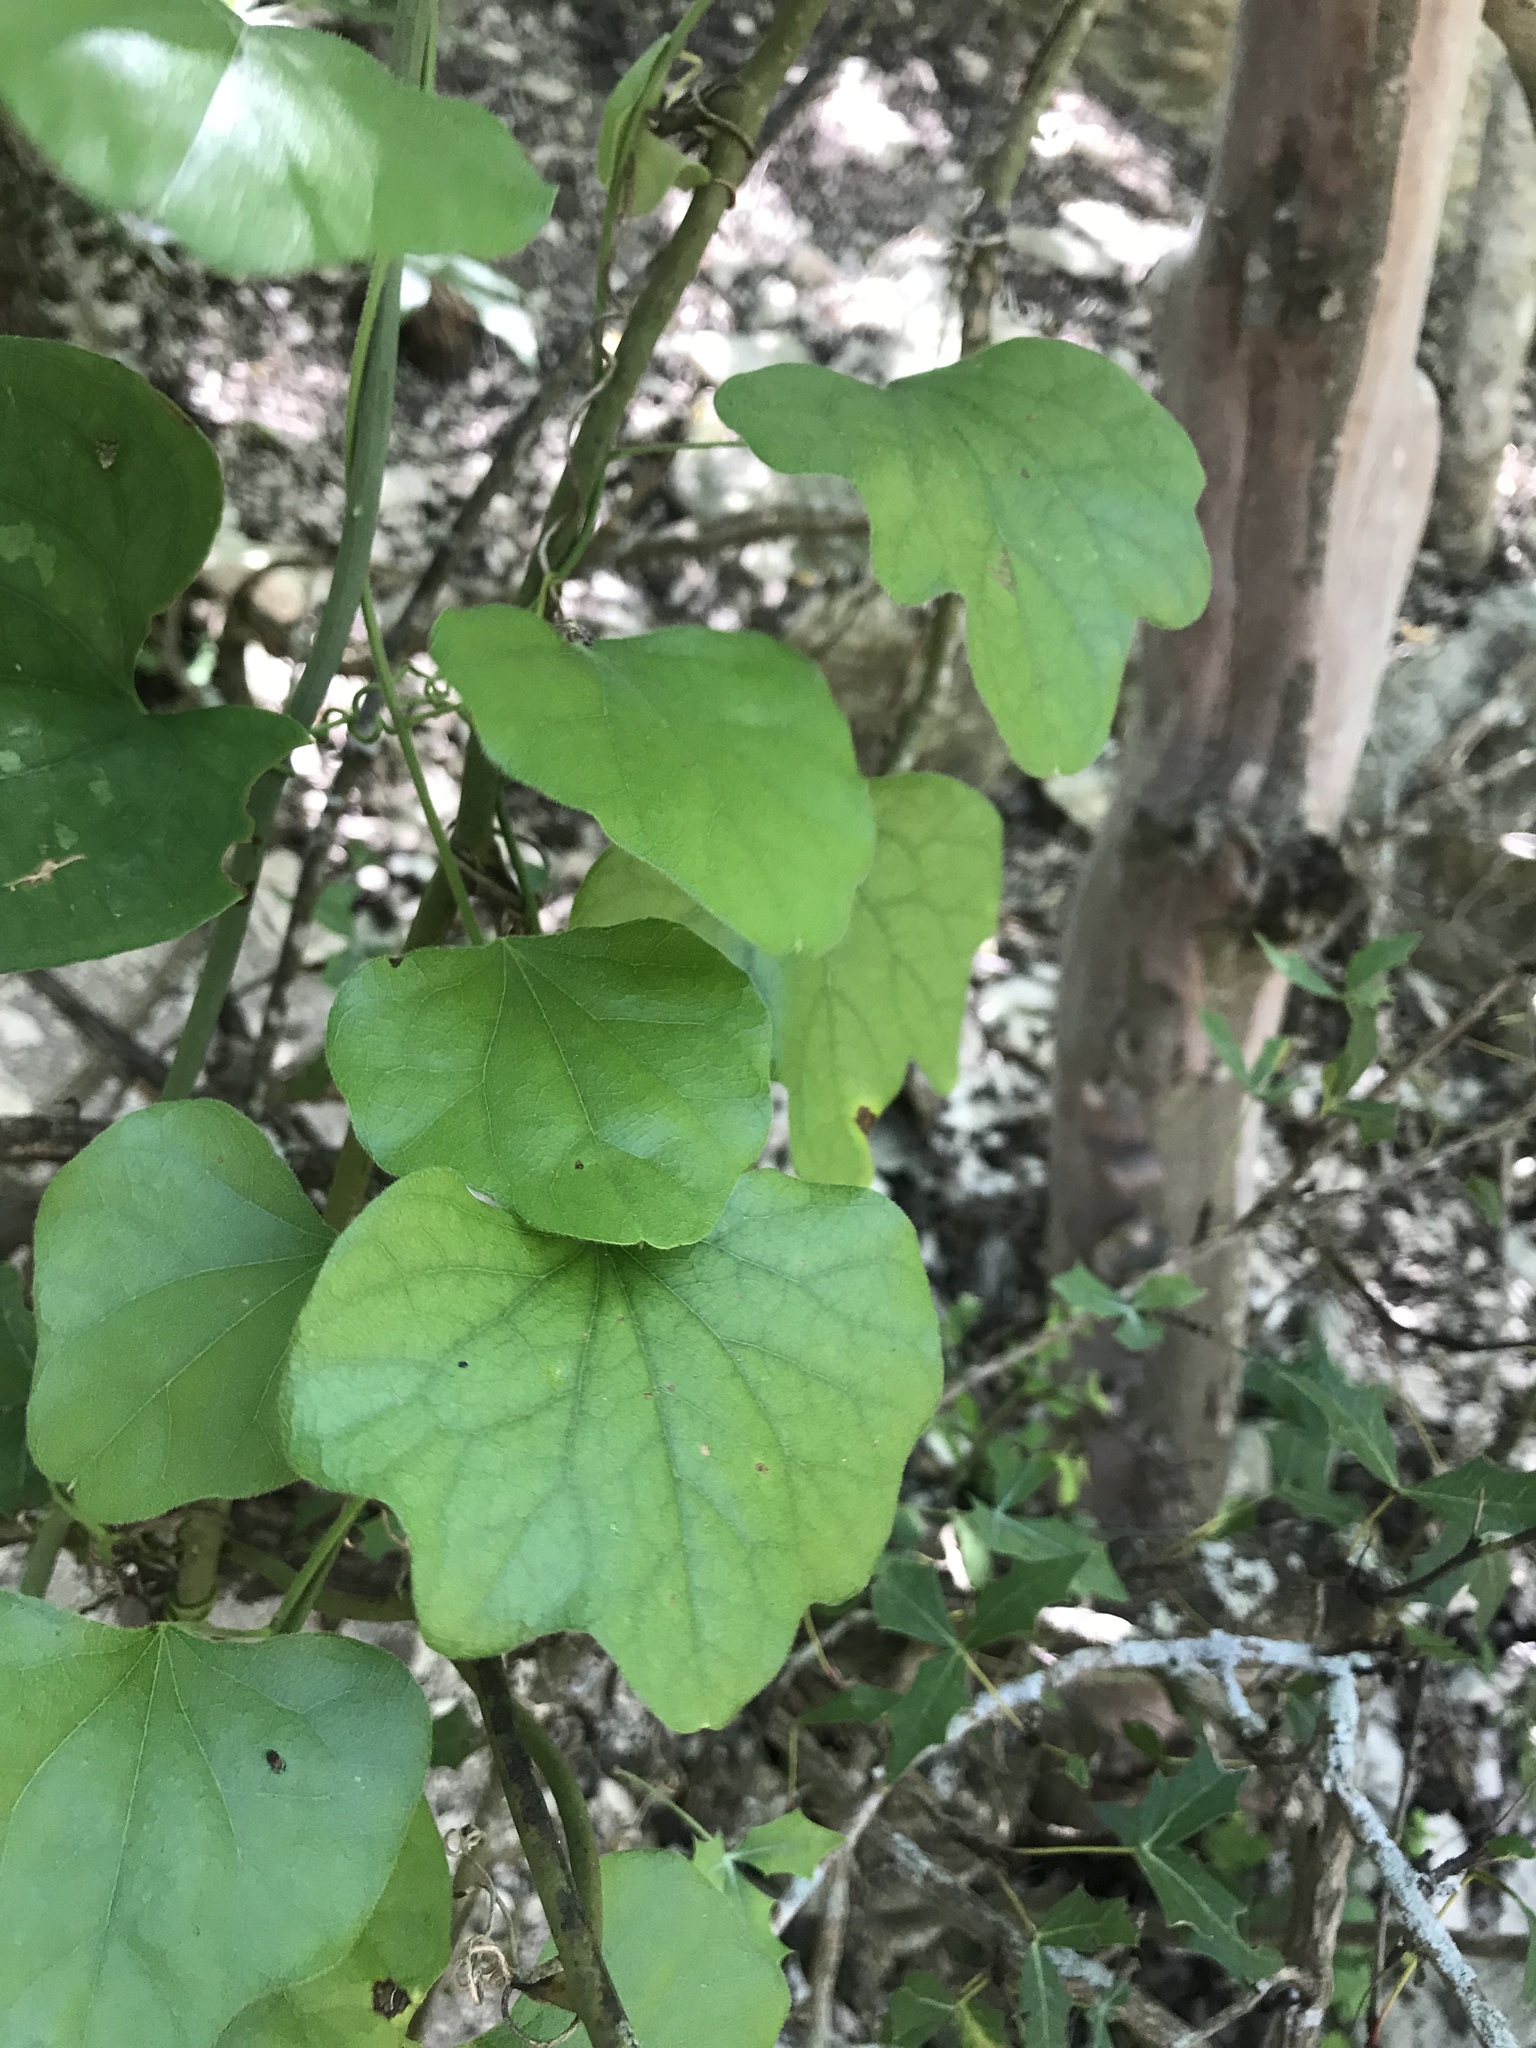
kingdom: Plantae
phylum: Tracheophyta
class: Magnoliopsida
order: Ranunculales
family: Menispermaceae
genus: Cocculus
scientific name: Cocculus carolinus
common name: Carolina moonseed
